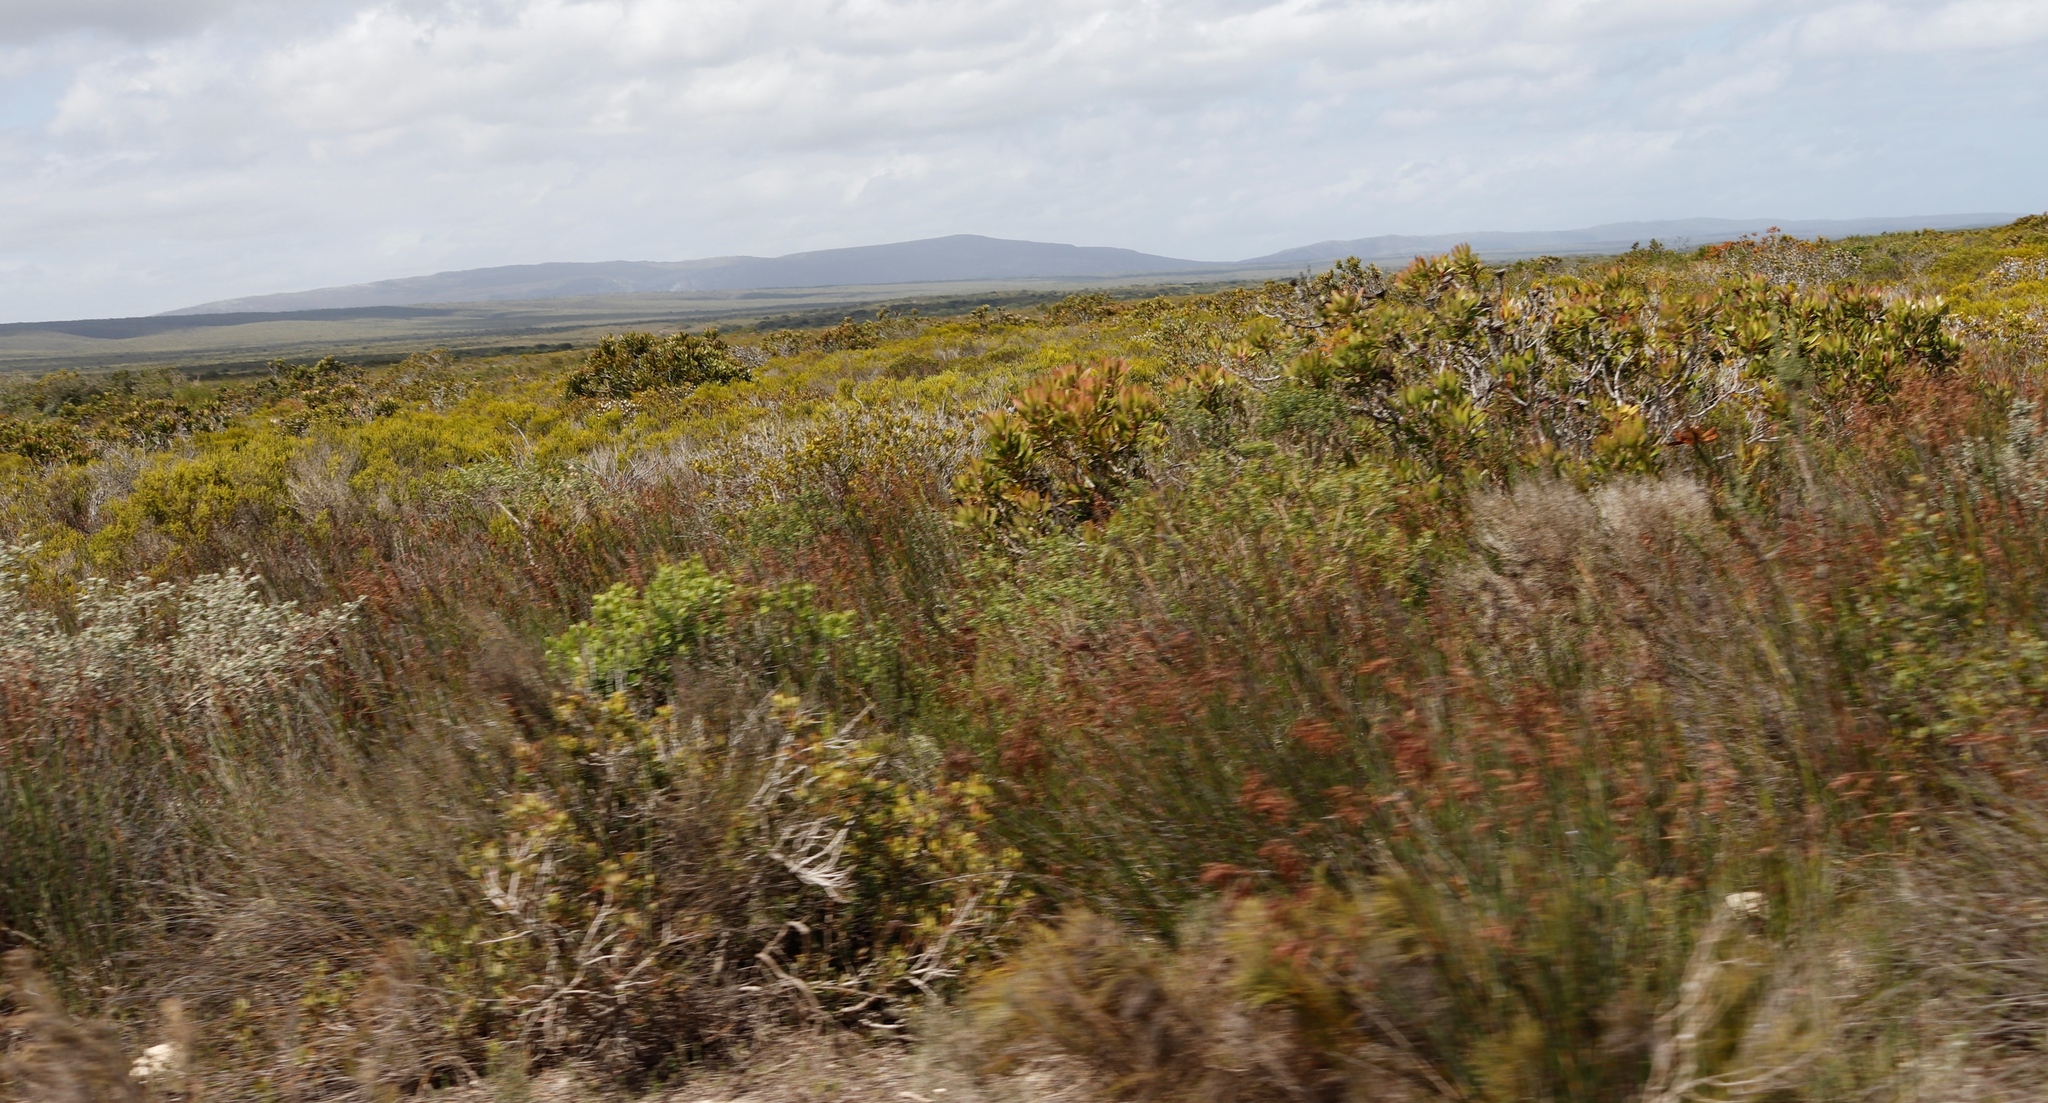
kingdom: Plantae
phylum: Tracheophyta
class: Magnoliopsida
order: Proteales
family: Proteaceae
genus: Protea
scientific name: Protea obtusifolia
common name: Bredasdorp sugarbush
